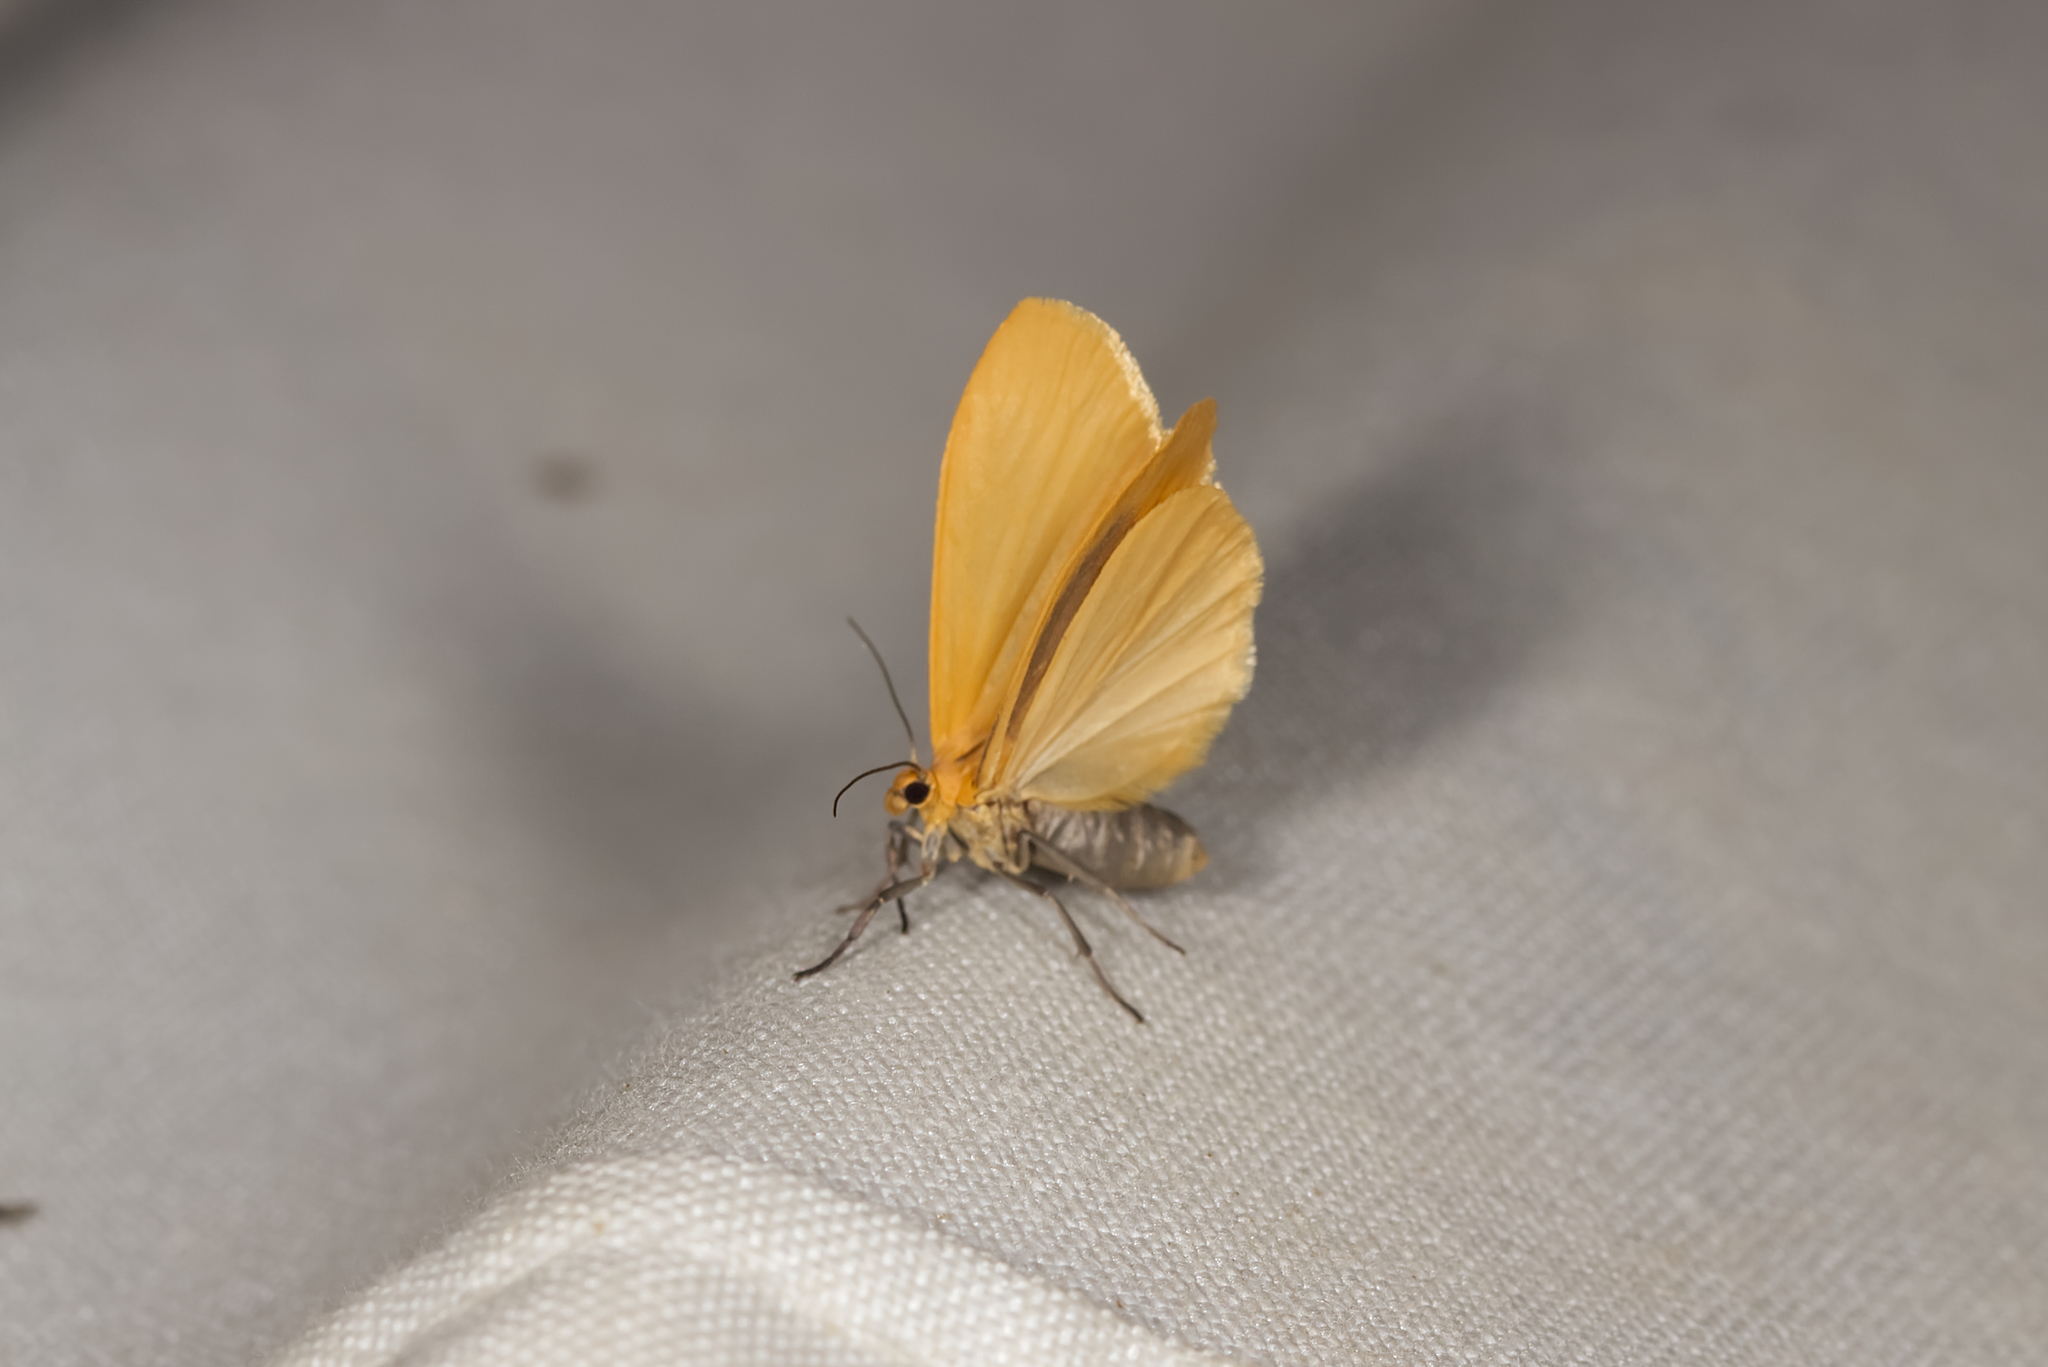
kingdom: Animalia
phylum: Arthropoda
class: Insecta
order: Lepidoptera
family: Erebidae
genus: Wittia
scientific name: Wittia sororcula
